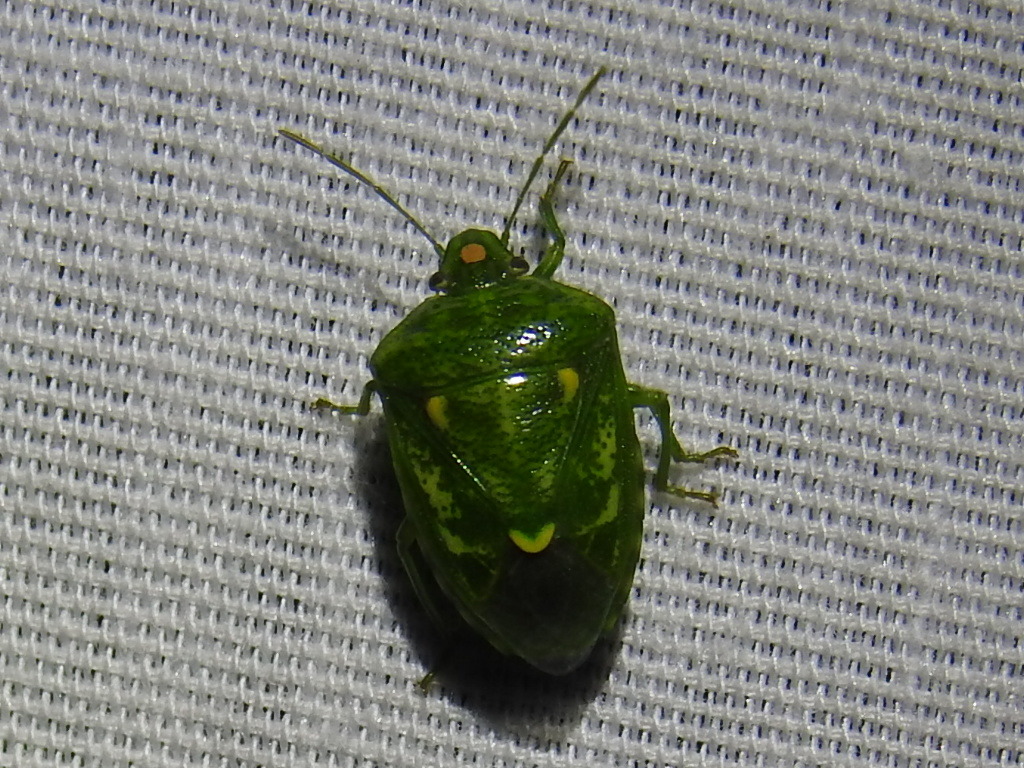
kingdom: Animalia
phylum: Arthropoda
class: Insecta
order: Hemiptera
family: Pentatomidae
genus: Banasa
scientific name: Banasa euchlora
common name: Cedar berry bug
